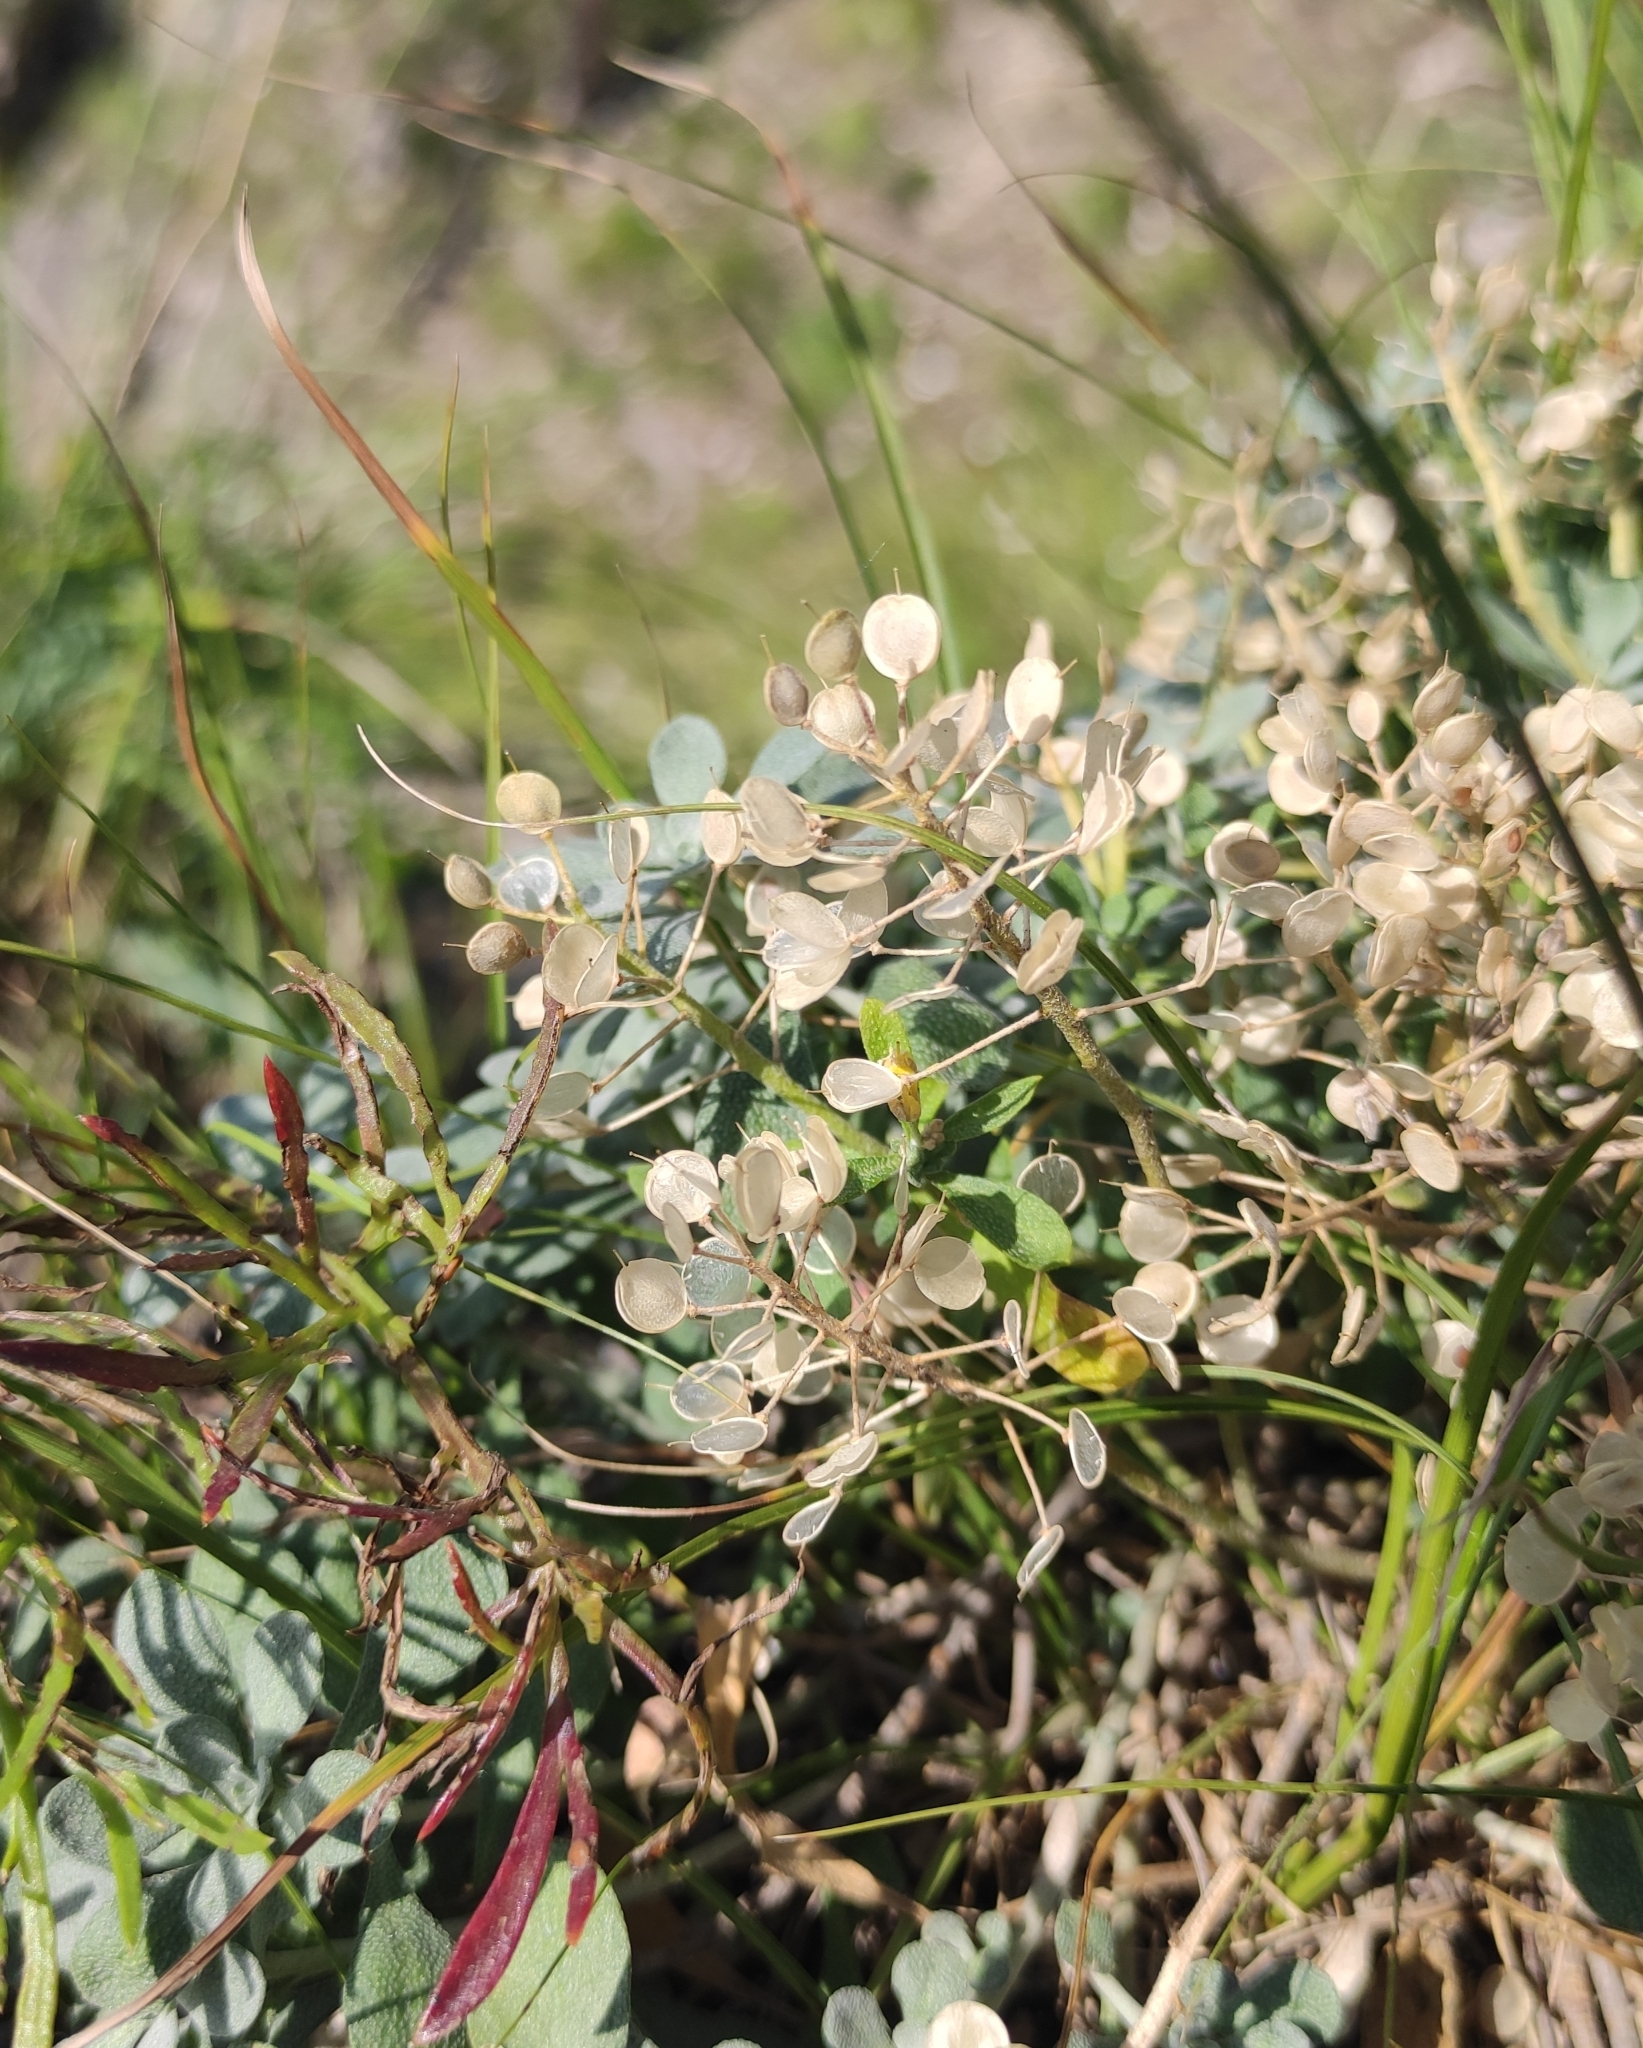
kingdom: Plantae
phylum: Tracheophyta
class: Magnoliopsida
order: Brassicales
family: Brassicaceae
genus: Odontarrhena
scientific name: Odontarrhena obovata
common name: American alyssum
